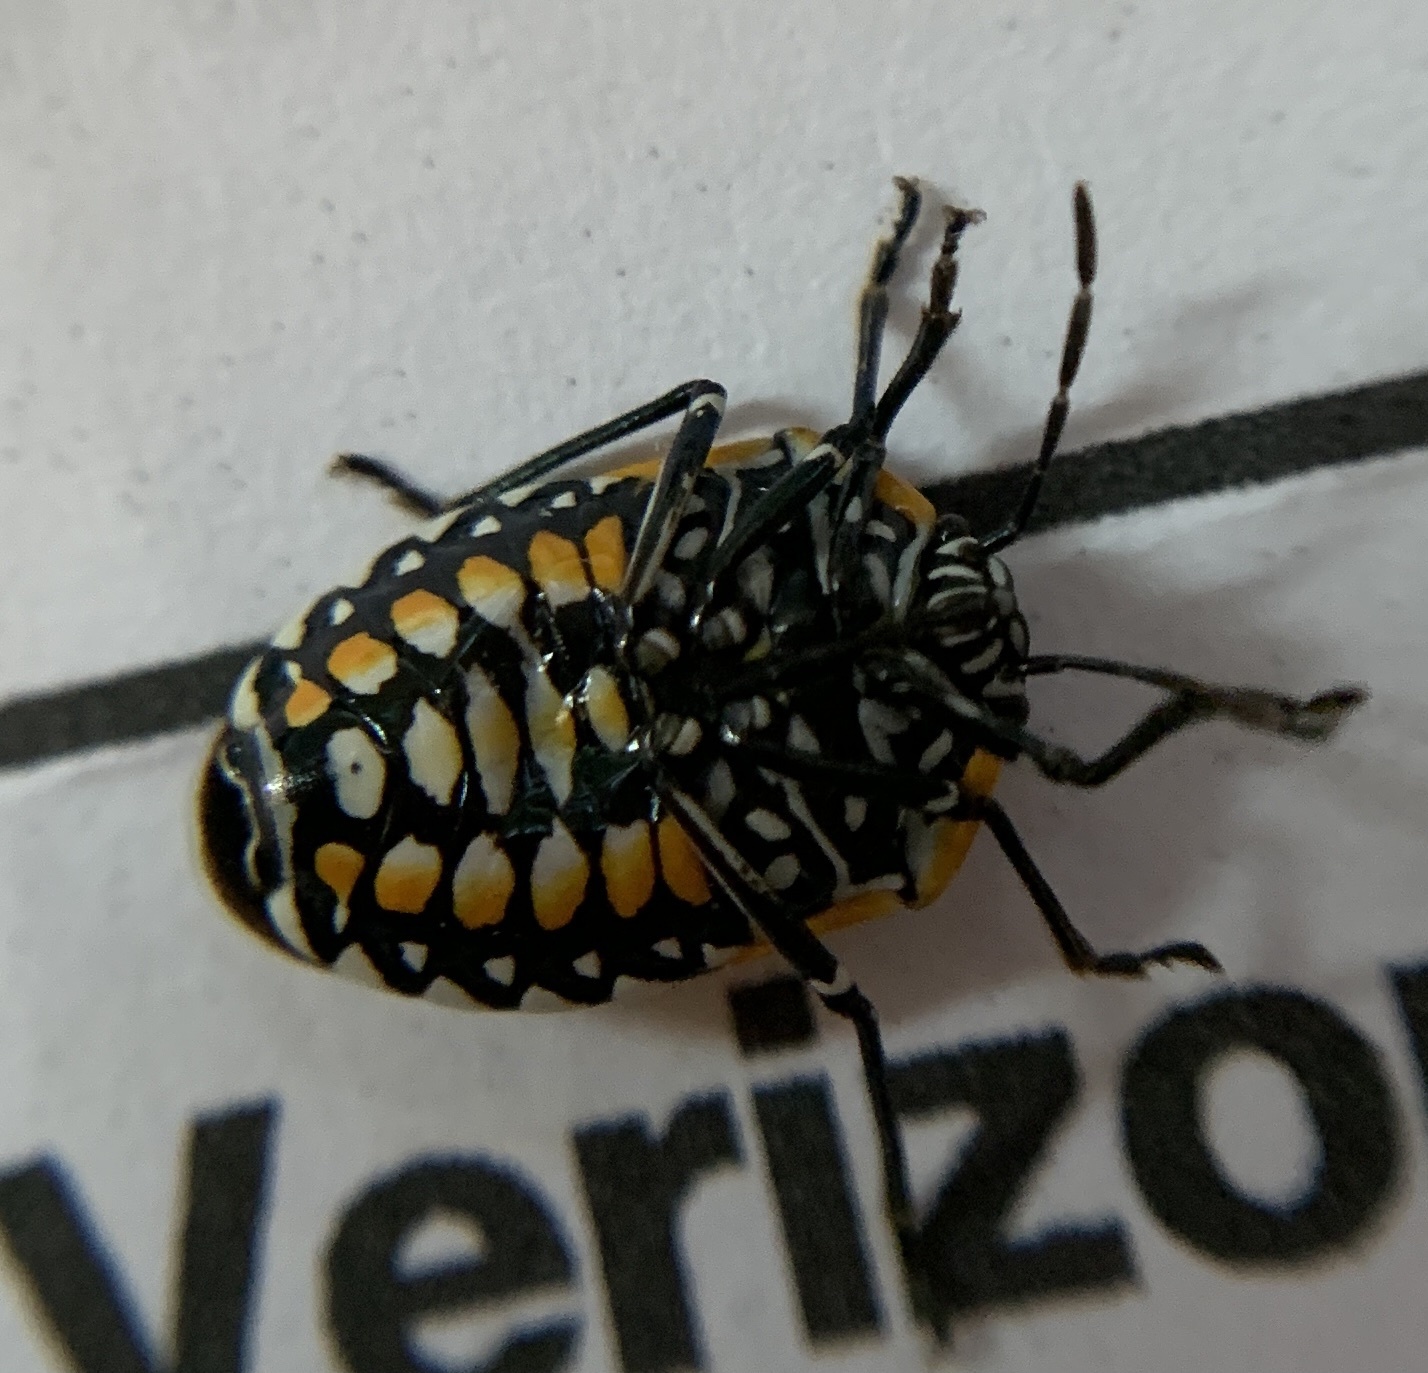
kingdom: Animalia
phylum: Arthropoda
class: Insecta
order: Hemiptera
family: Pentatomidae
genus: Murgantia
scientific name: Murgantia histrionica
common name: Harlequin bug
